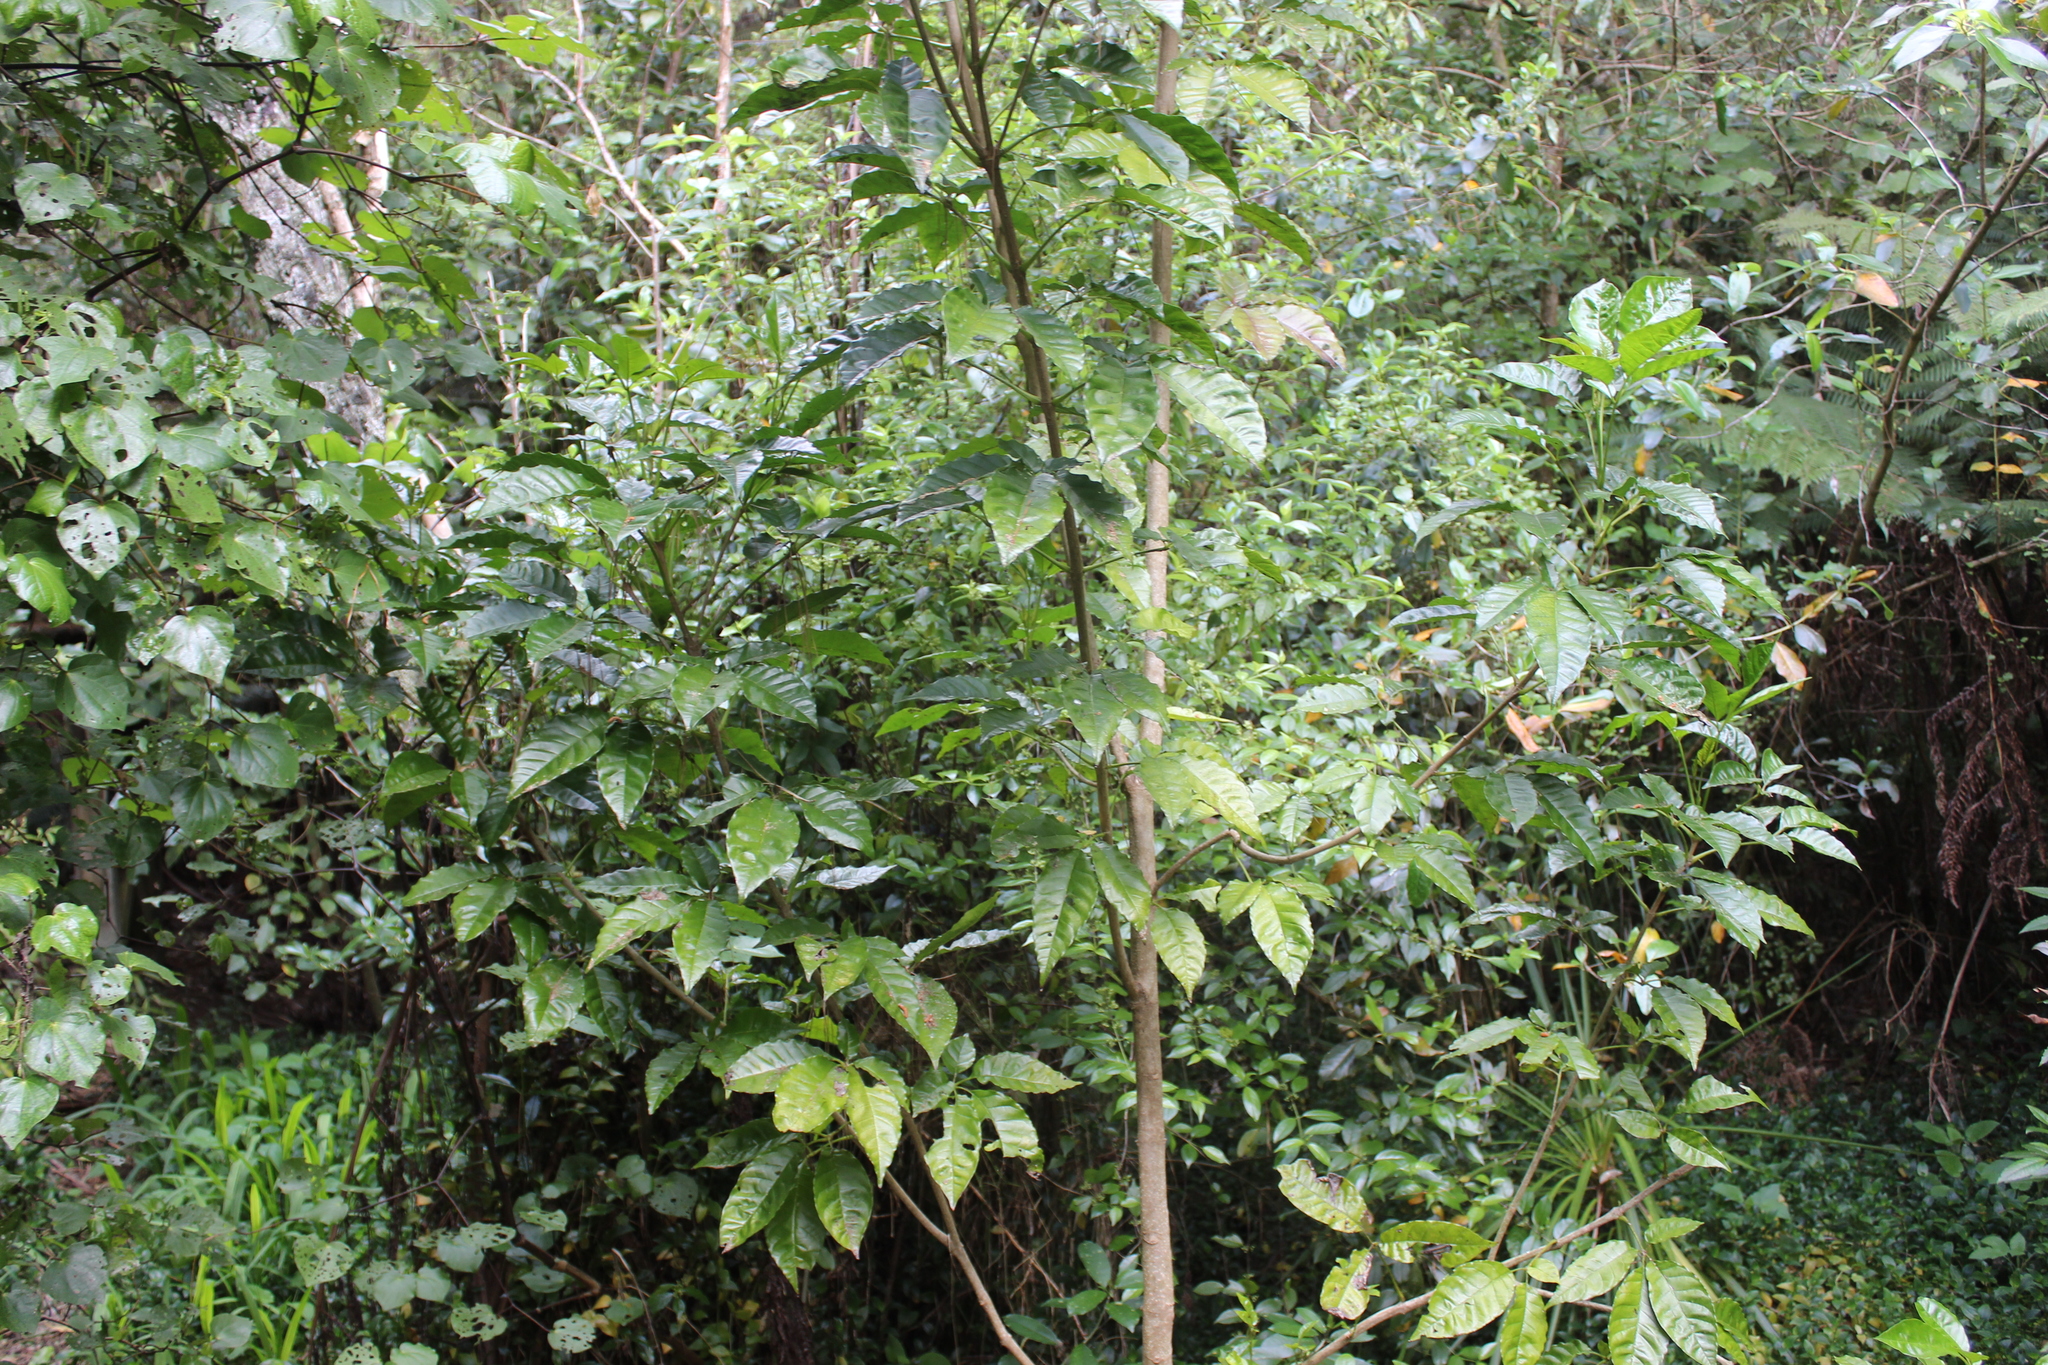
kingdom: Plantae
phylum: Tracheophyta
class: Magnoliopsida
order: Lamiales
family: Lamiaceae
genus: Vitex
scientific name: Vitex lucens
